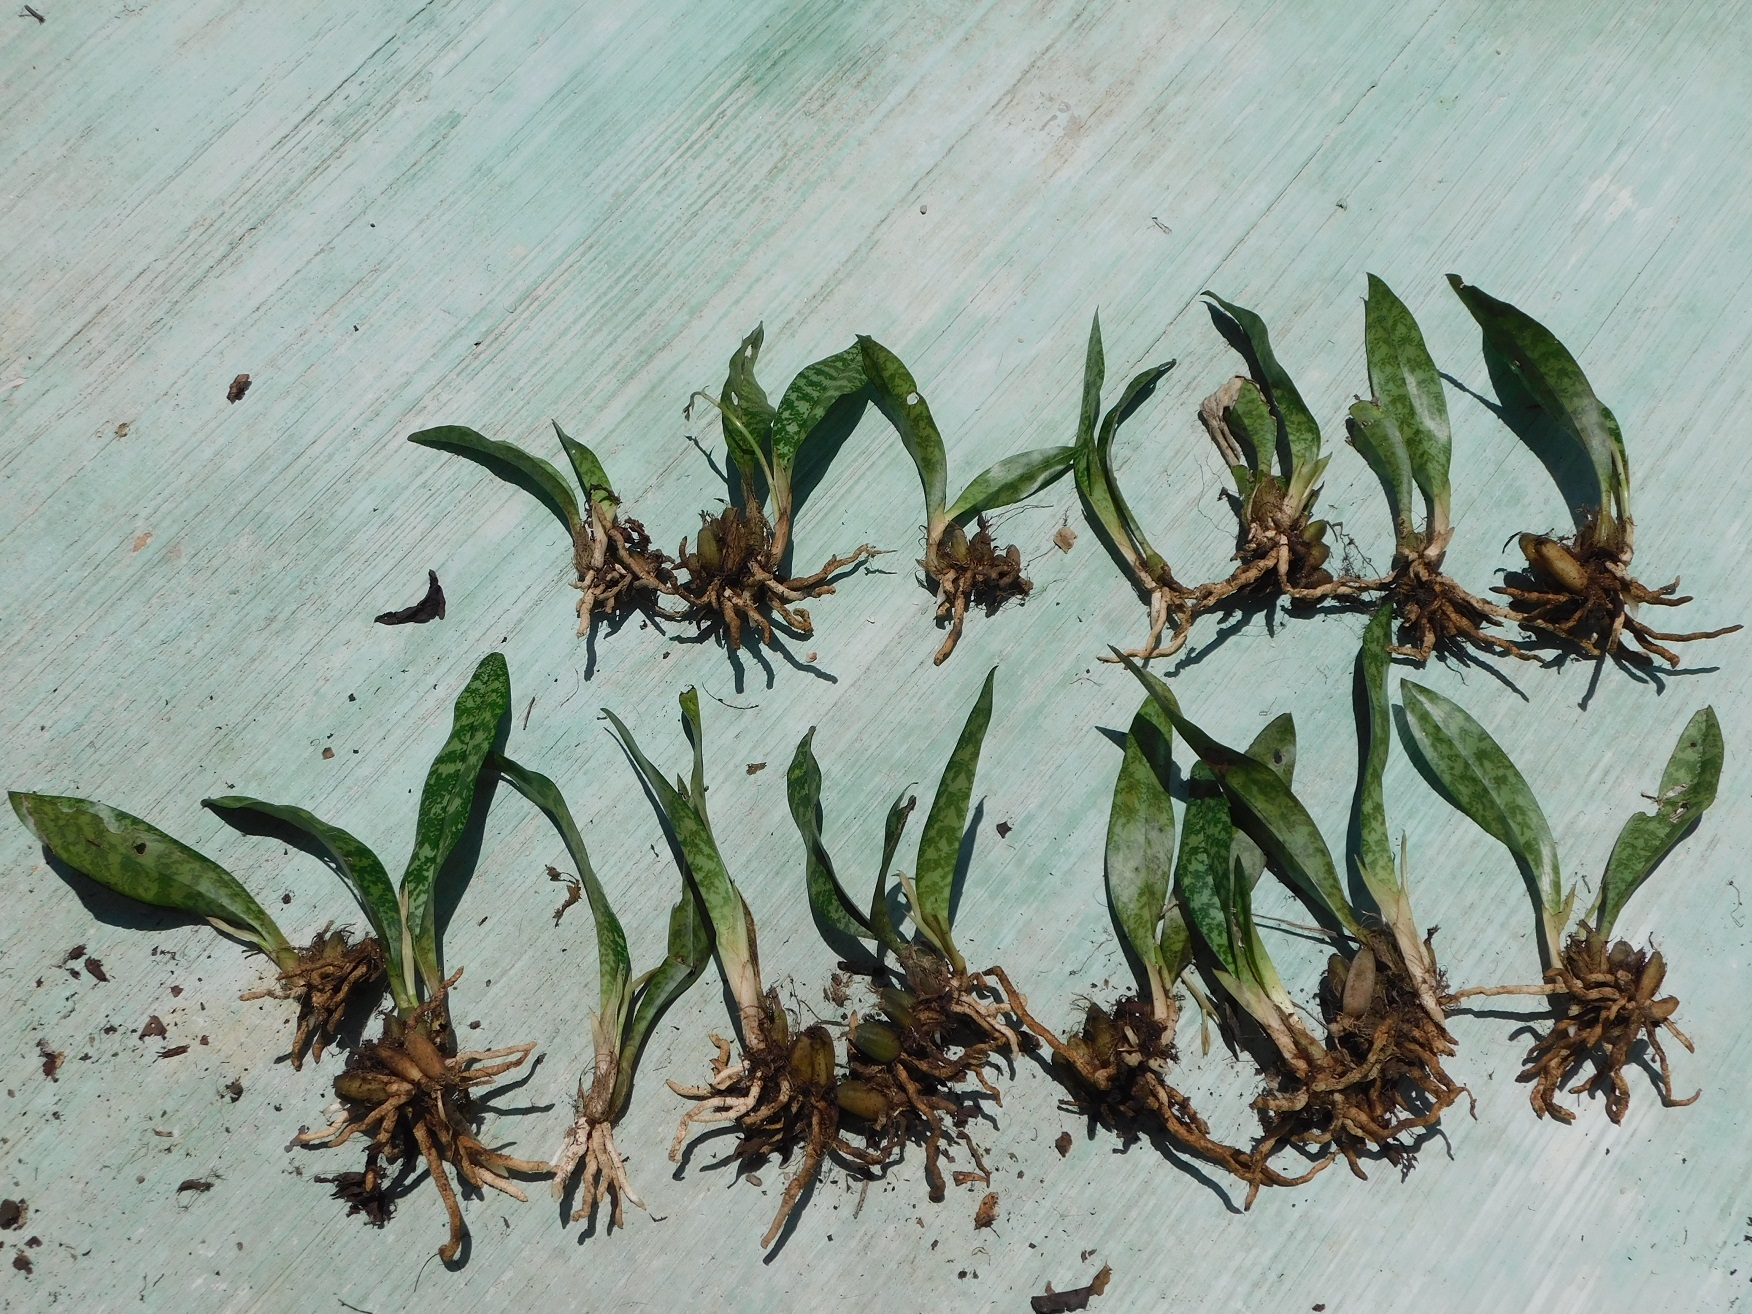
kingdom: Plantae
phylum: Tracheophyta
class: Liliopsida
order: Asparagales
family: Orchidaceae
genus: Eulophia
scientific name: Eulophia maculata
